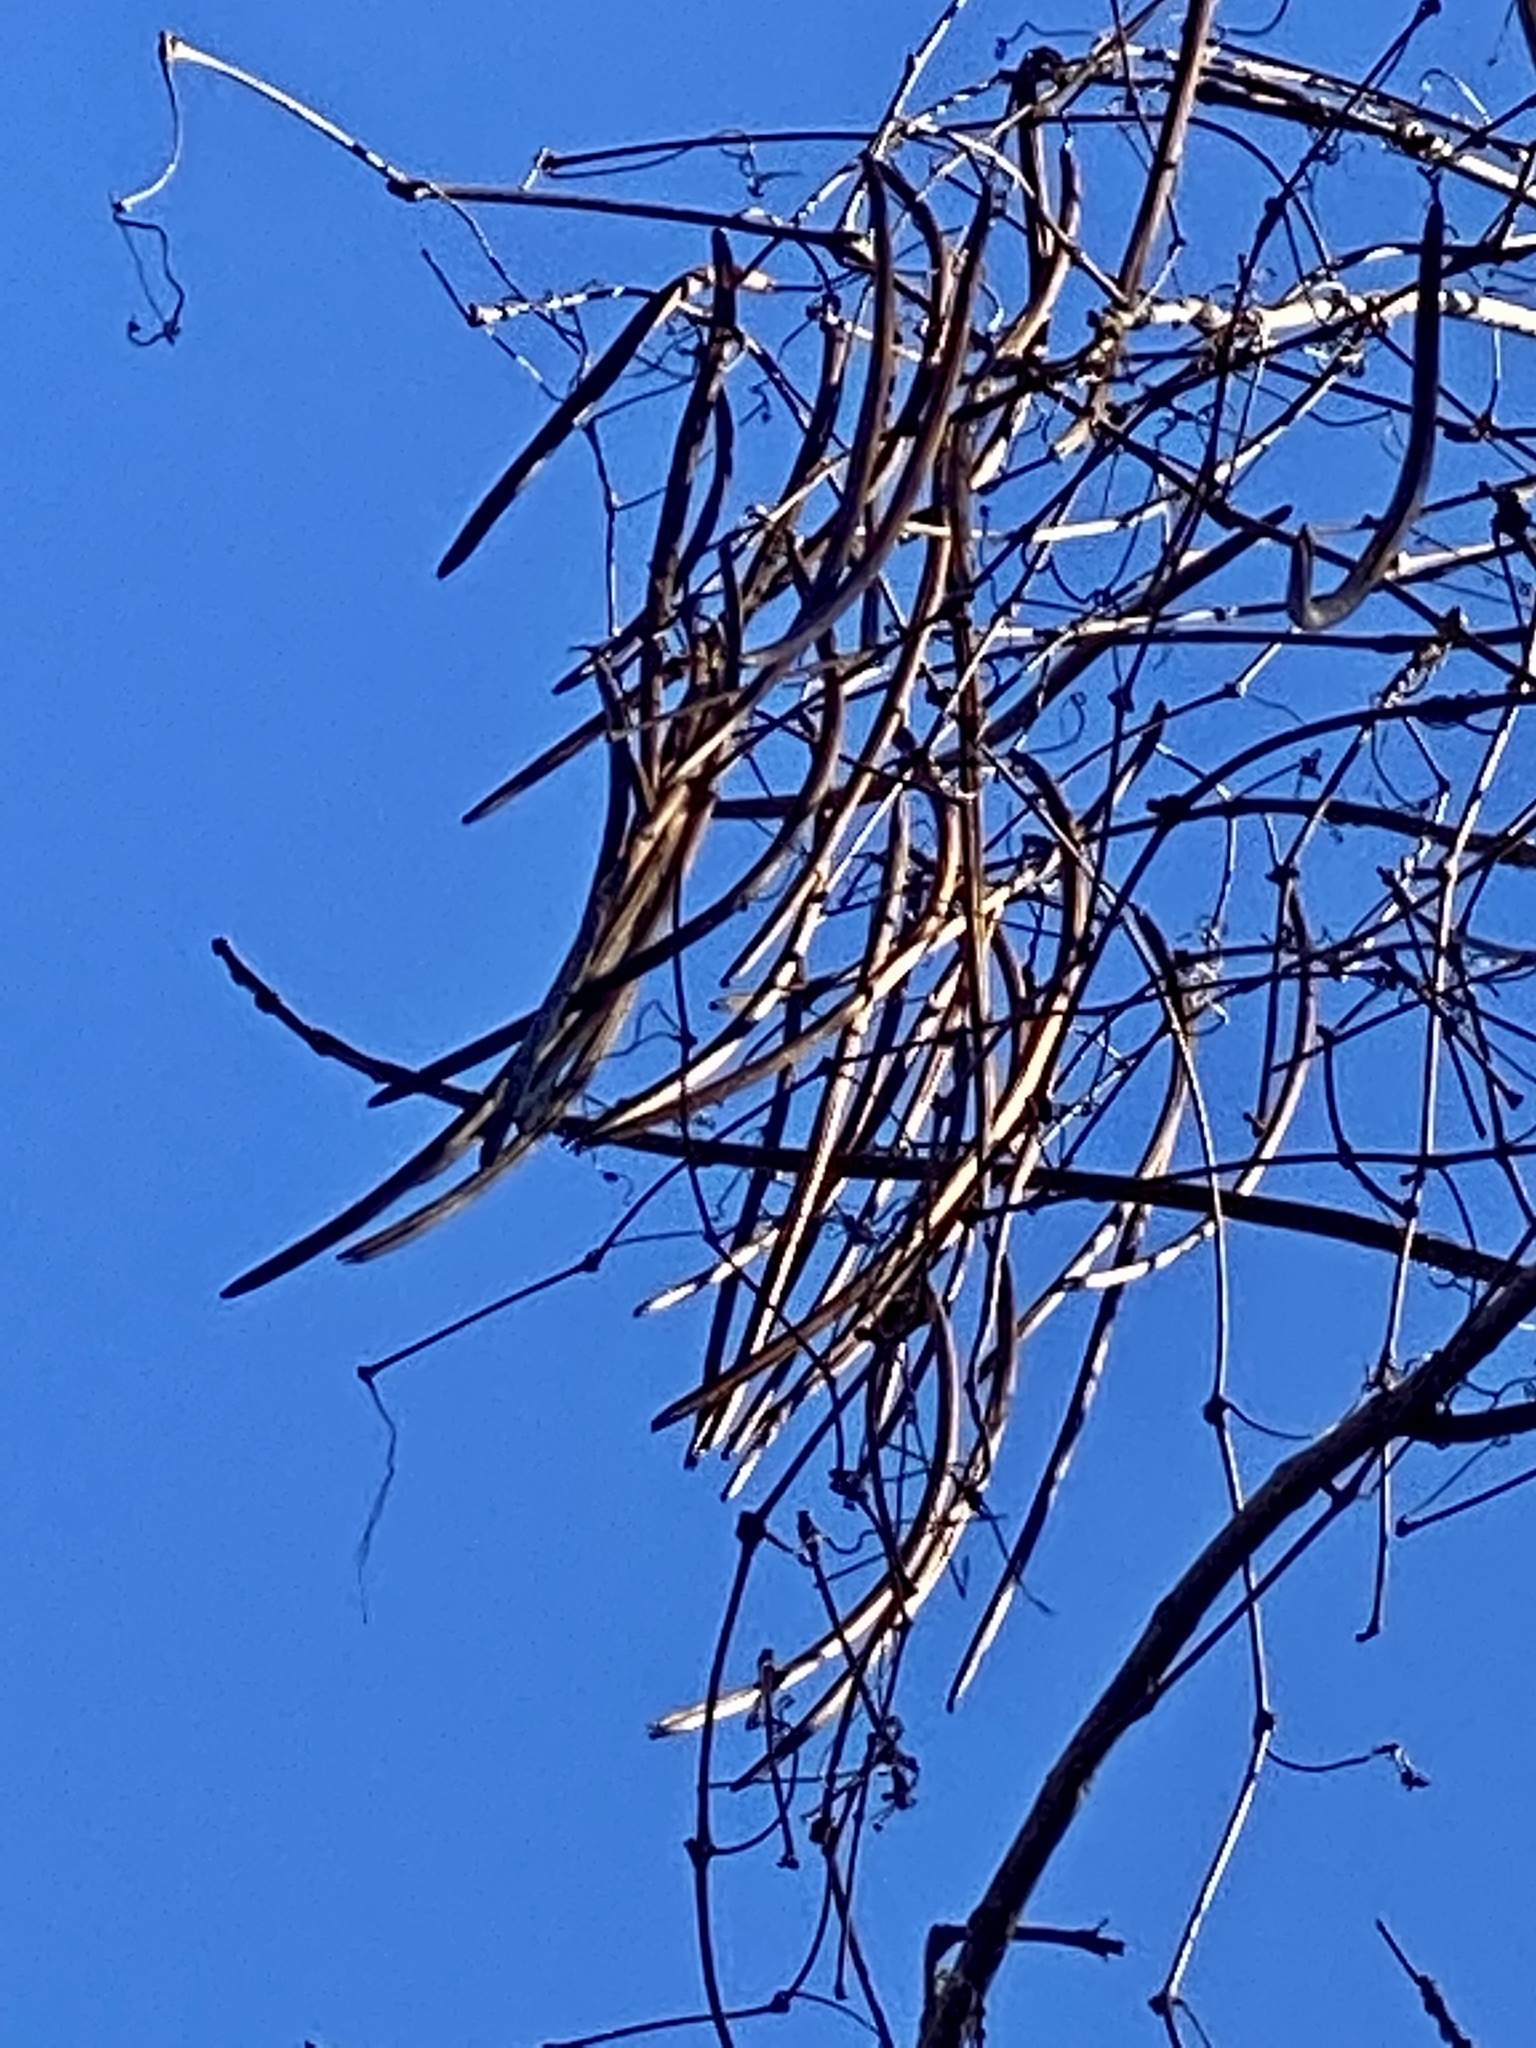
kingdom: Plantae
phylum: Tracheophyta
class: Magnoliopsida
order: Lamiales
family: Bignoniaceae
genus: Catalpa
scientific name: Catalpa
